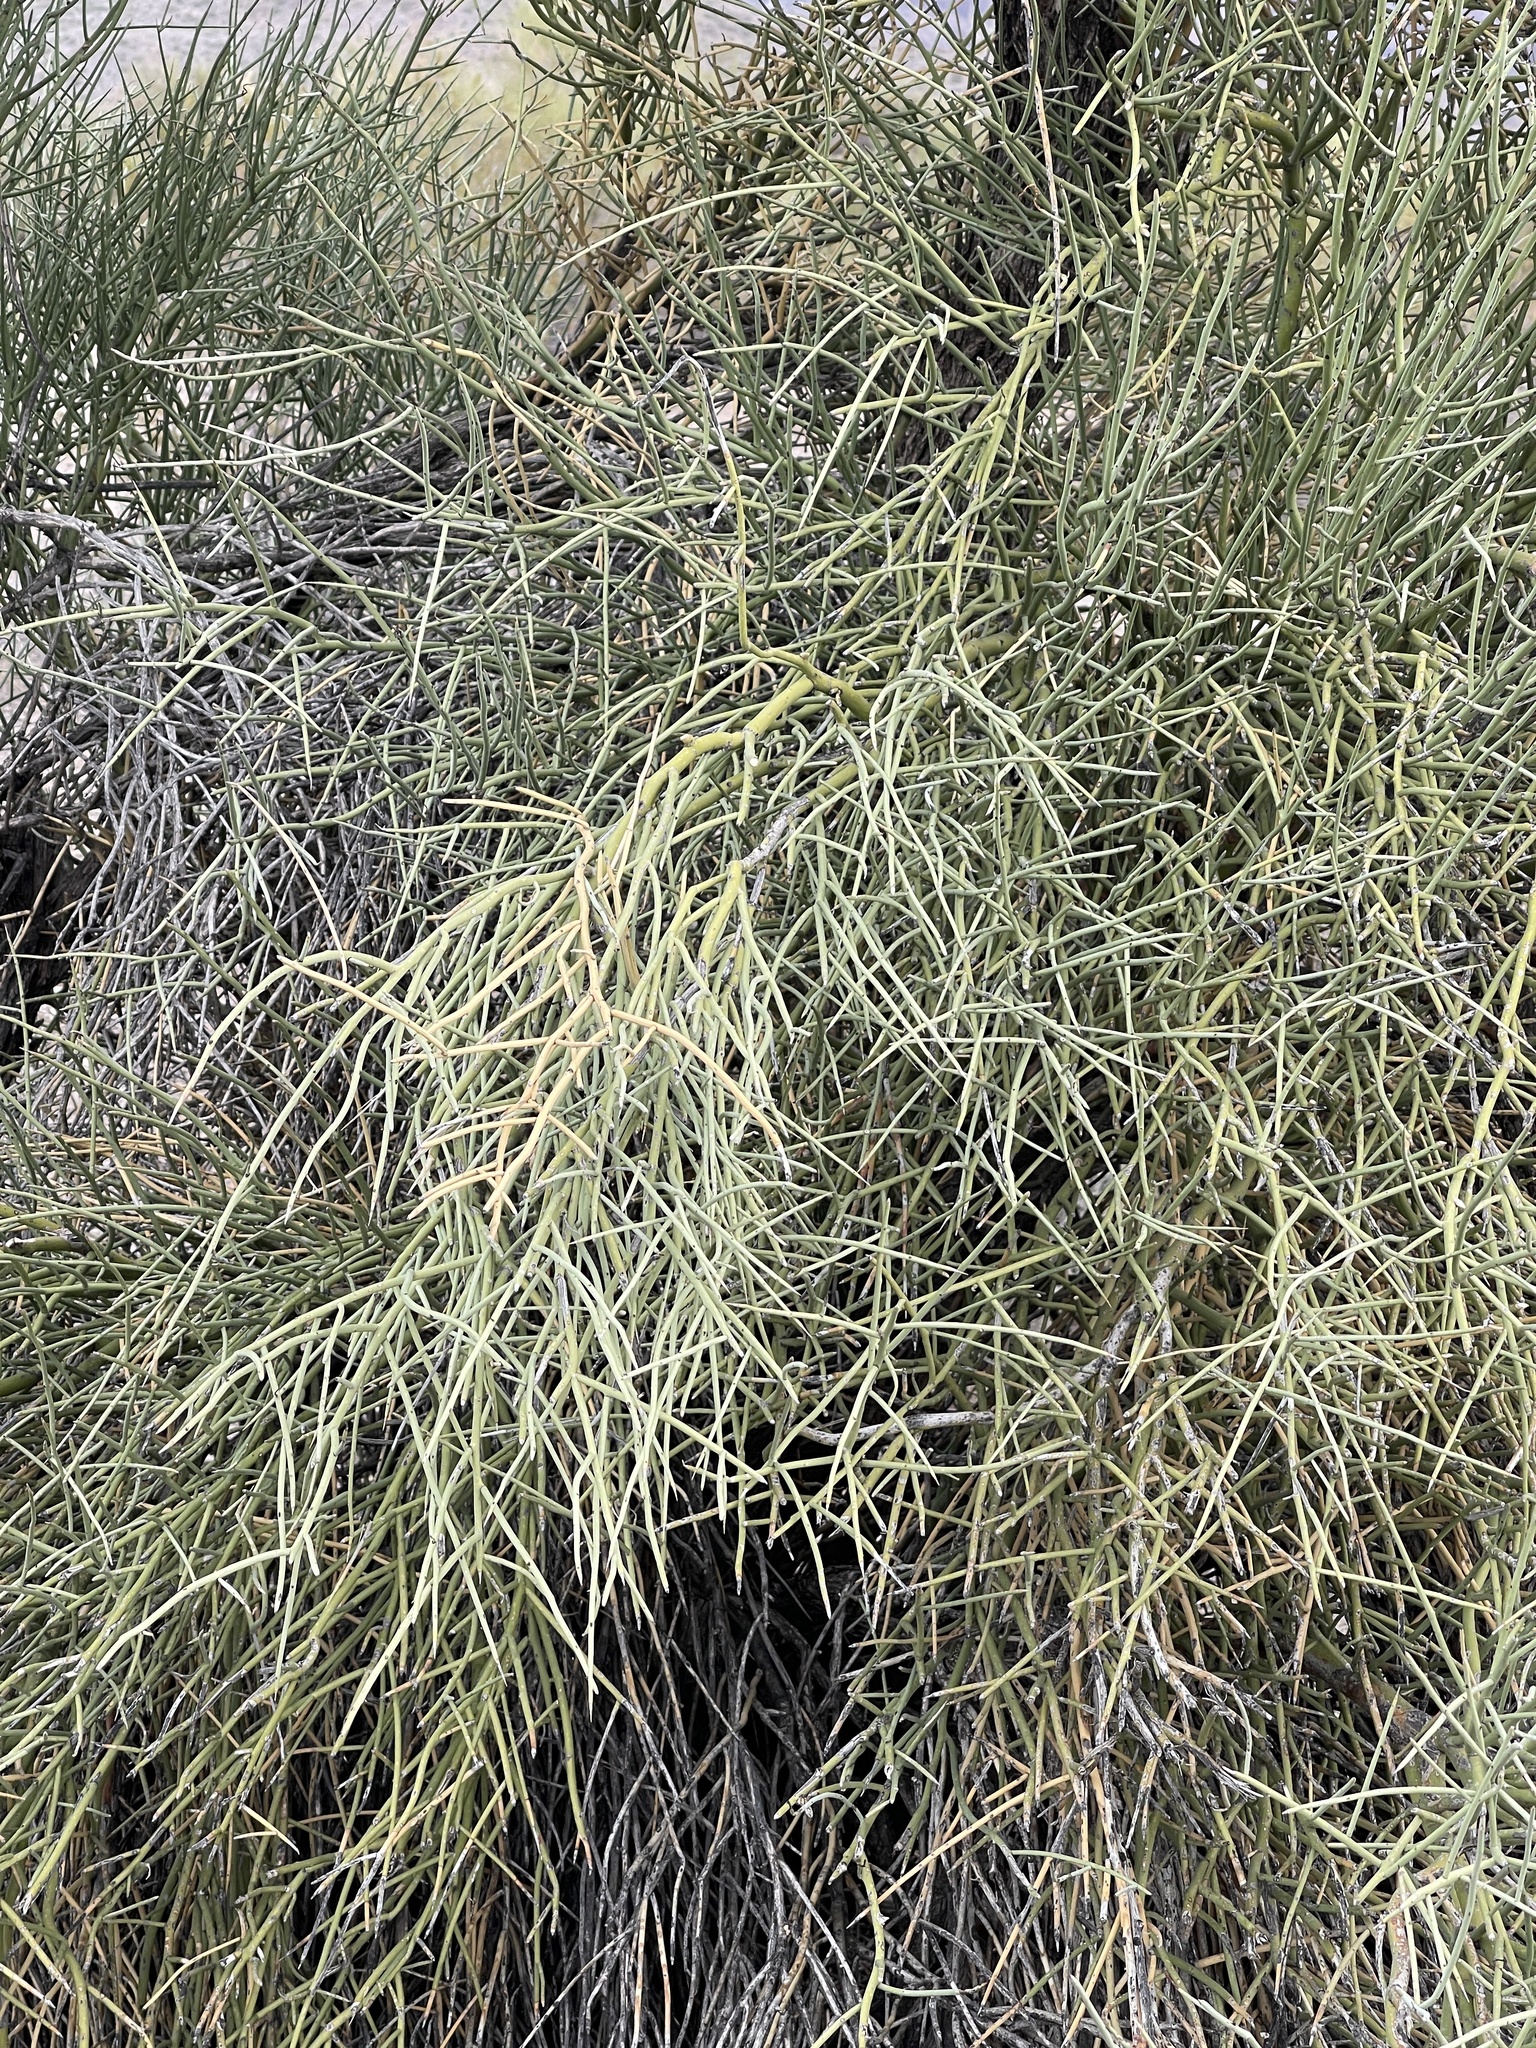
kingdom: Plantae
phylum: Tracheophyta
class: Magnoliopsida
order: Celastrales
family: Celastraceae
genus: Canotia
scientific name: Canotia holacantha
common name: Crucifixion thorns
